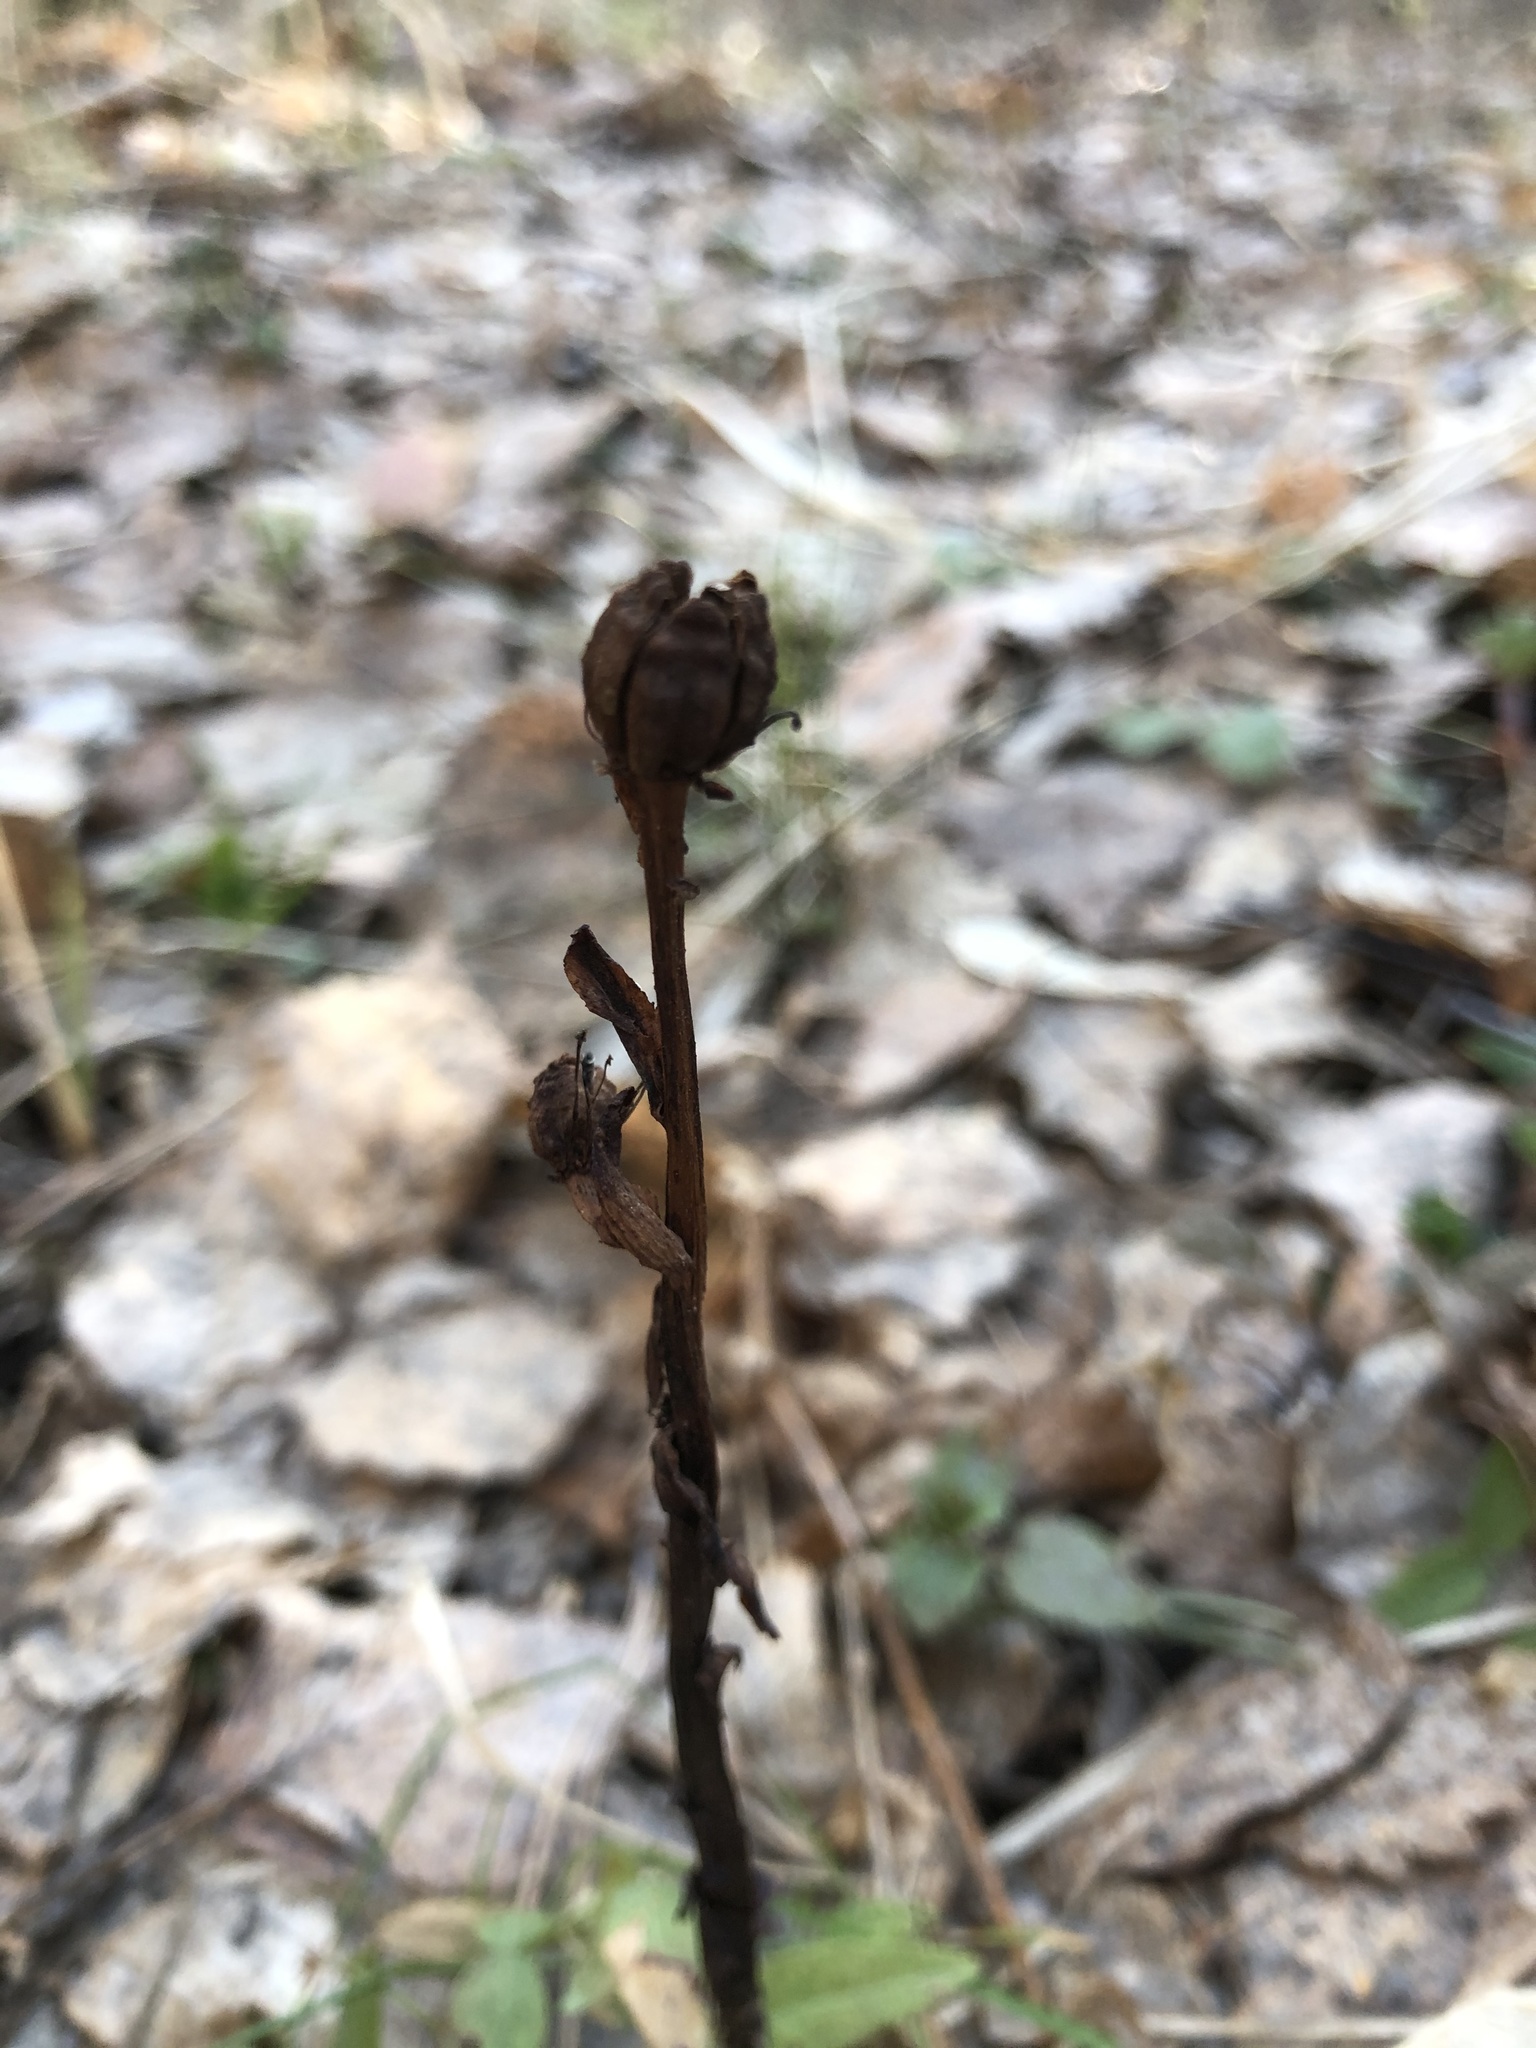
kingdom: Plantae
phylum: Tracheophyta
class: Magnoliopsida
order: Ericales
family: Ericaceae
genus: Hypopitys
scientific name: Hypopitys monotropa
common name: Yellow bird's-nest
